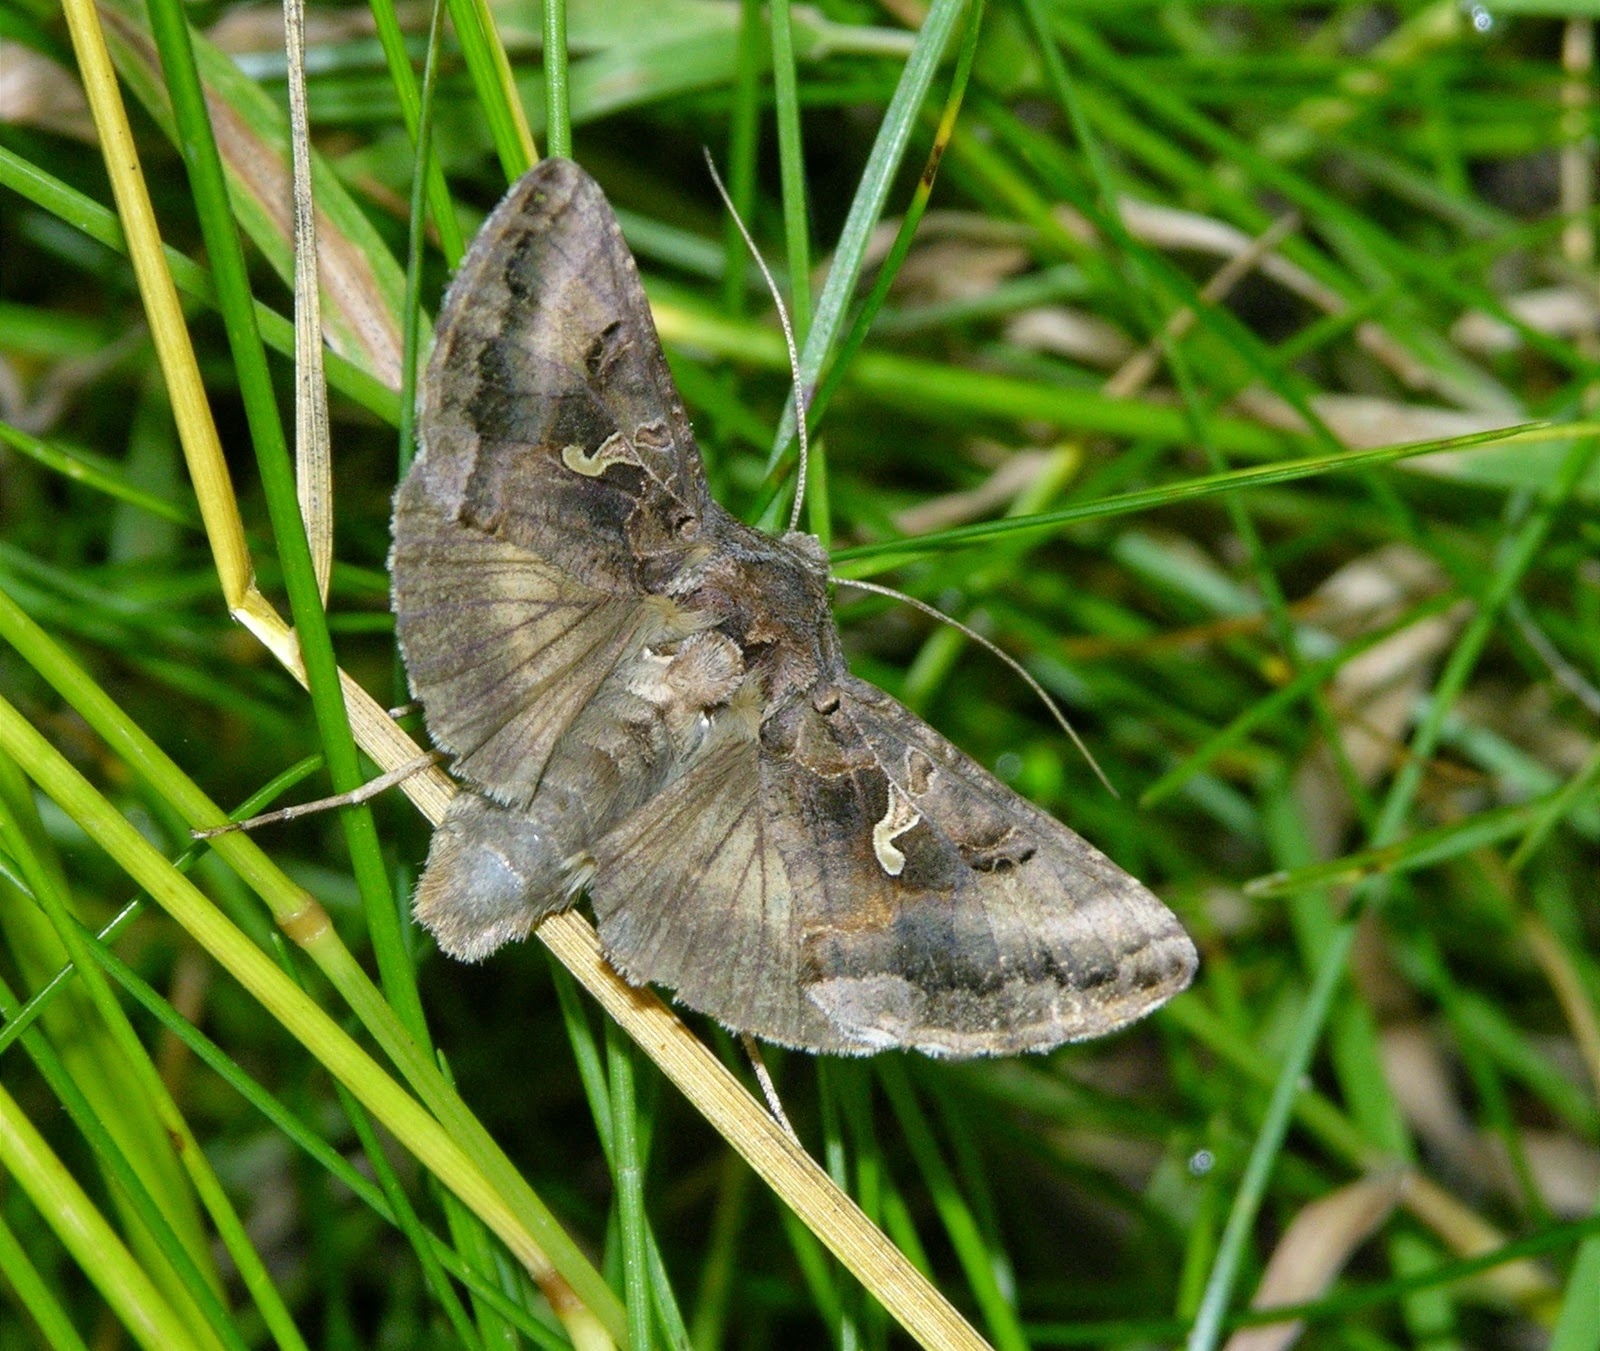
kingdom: Animalia
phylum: Arthropoda
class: Insecta
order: Lepidoptera
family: Noctuidae
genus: Autographa
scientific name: Autographa gamma
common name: Silver y
